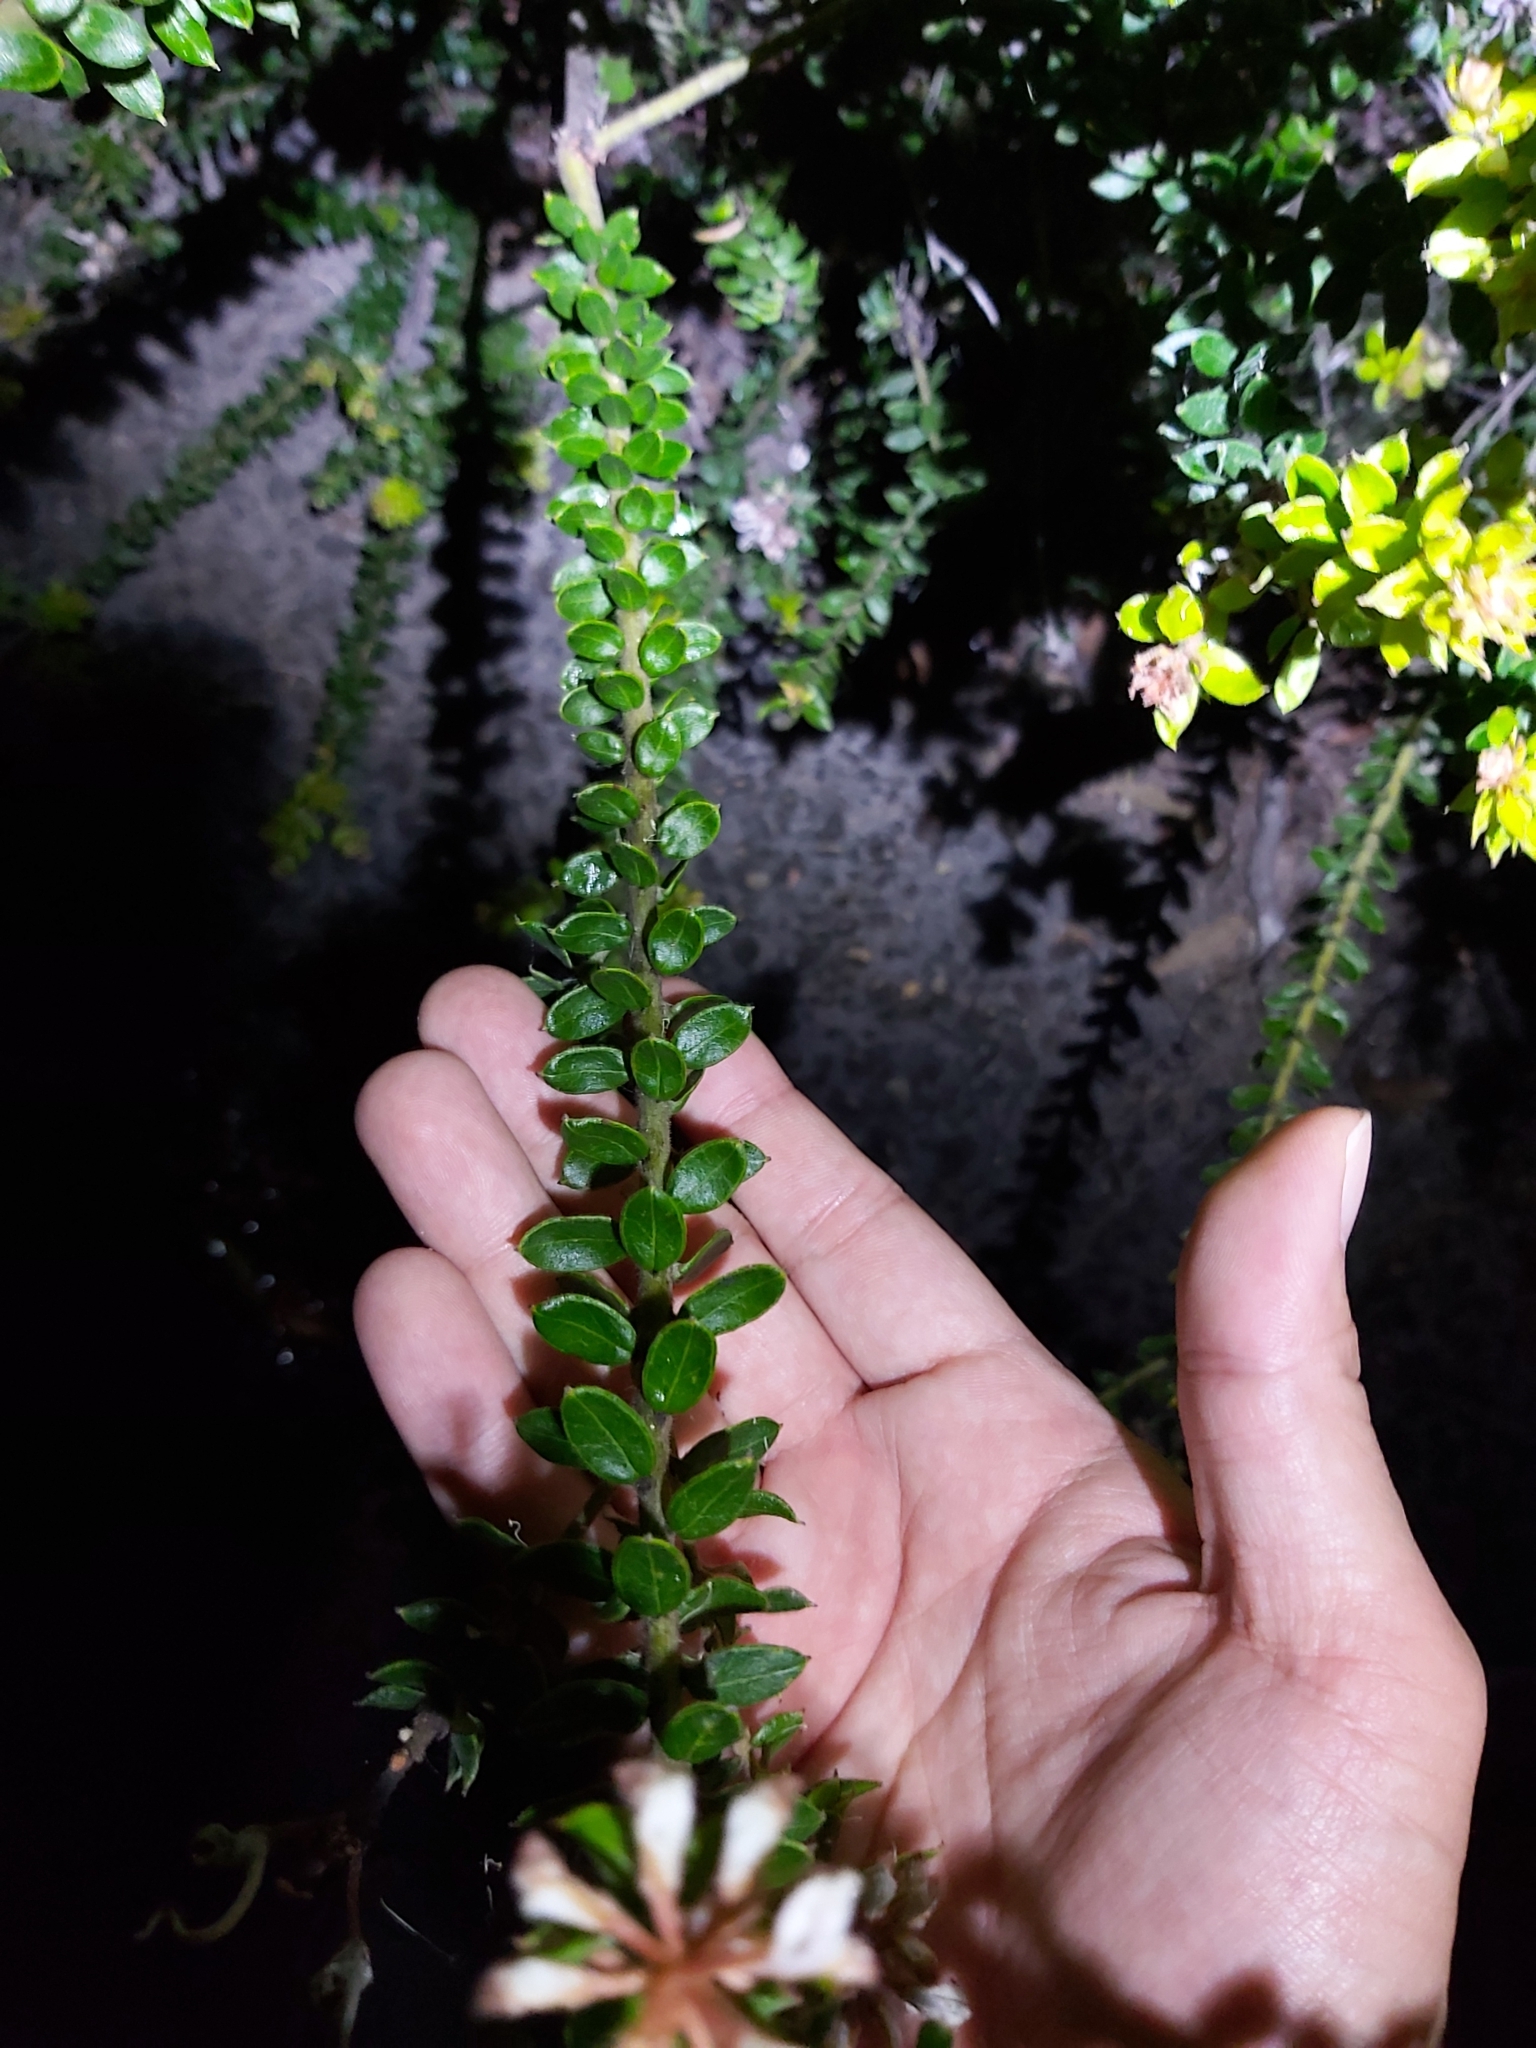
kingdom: Plantae
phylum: Tracheophyta
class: Magnoliopsida
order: Proteales
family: Proteaceae
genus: Grevillea
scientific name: Grevillea buxifolia
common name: Grey spiderflower
